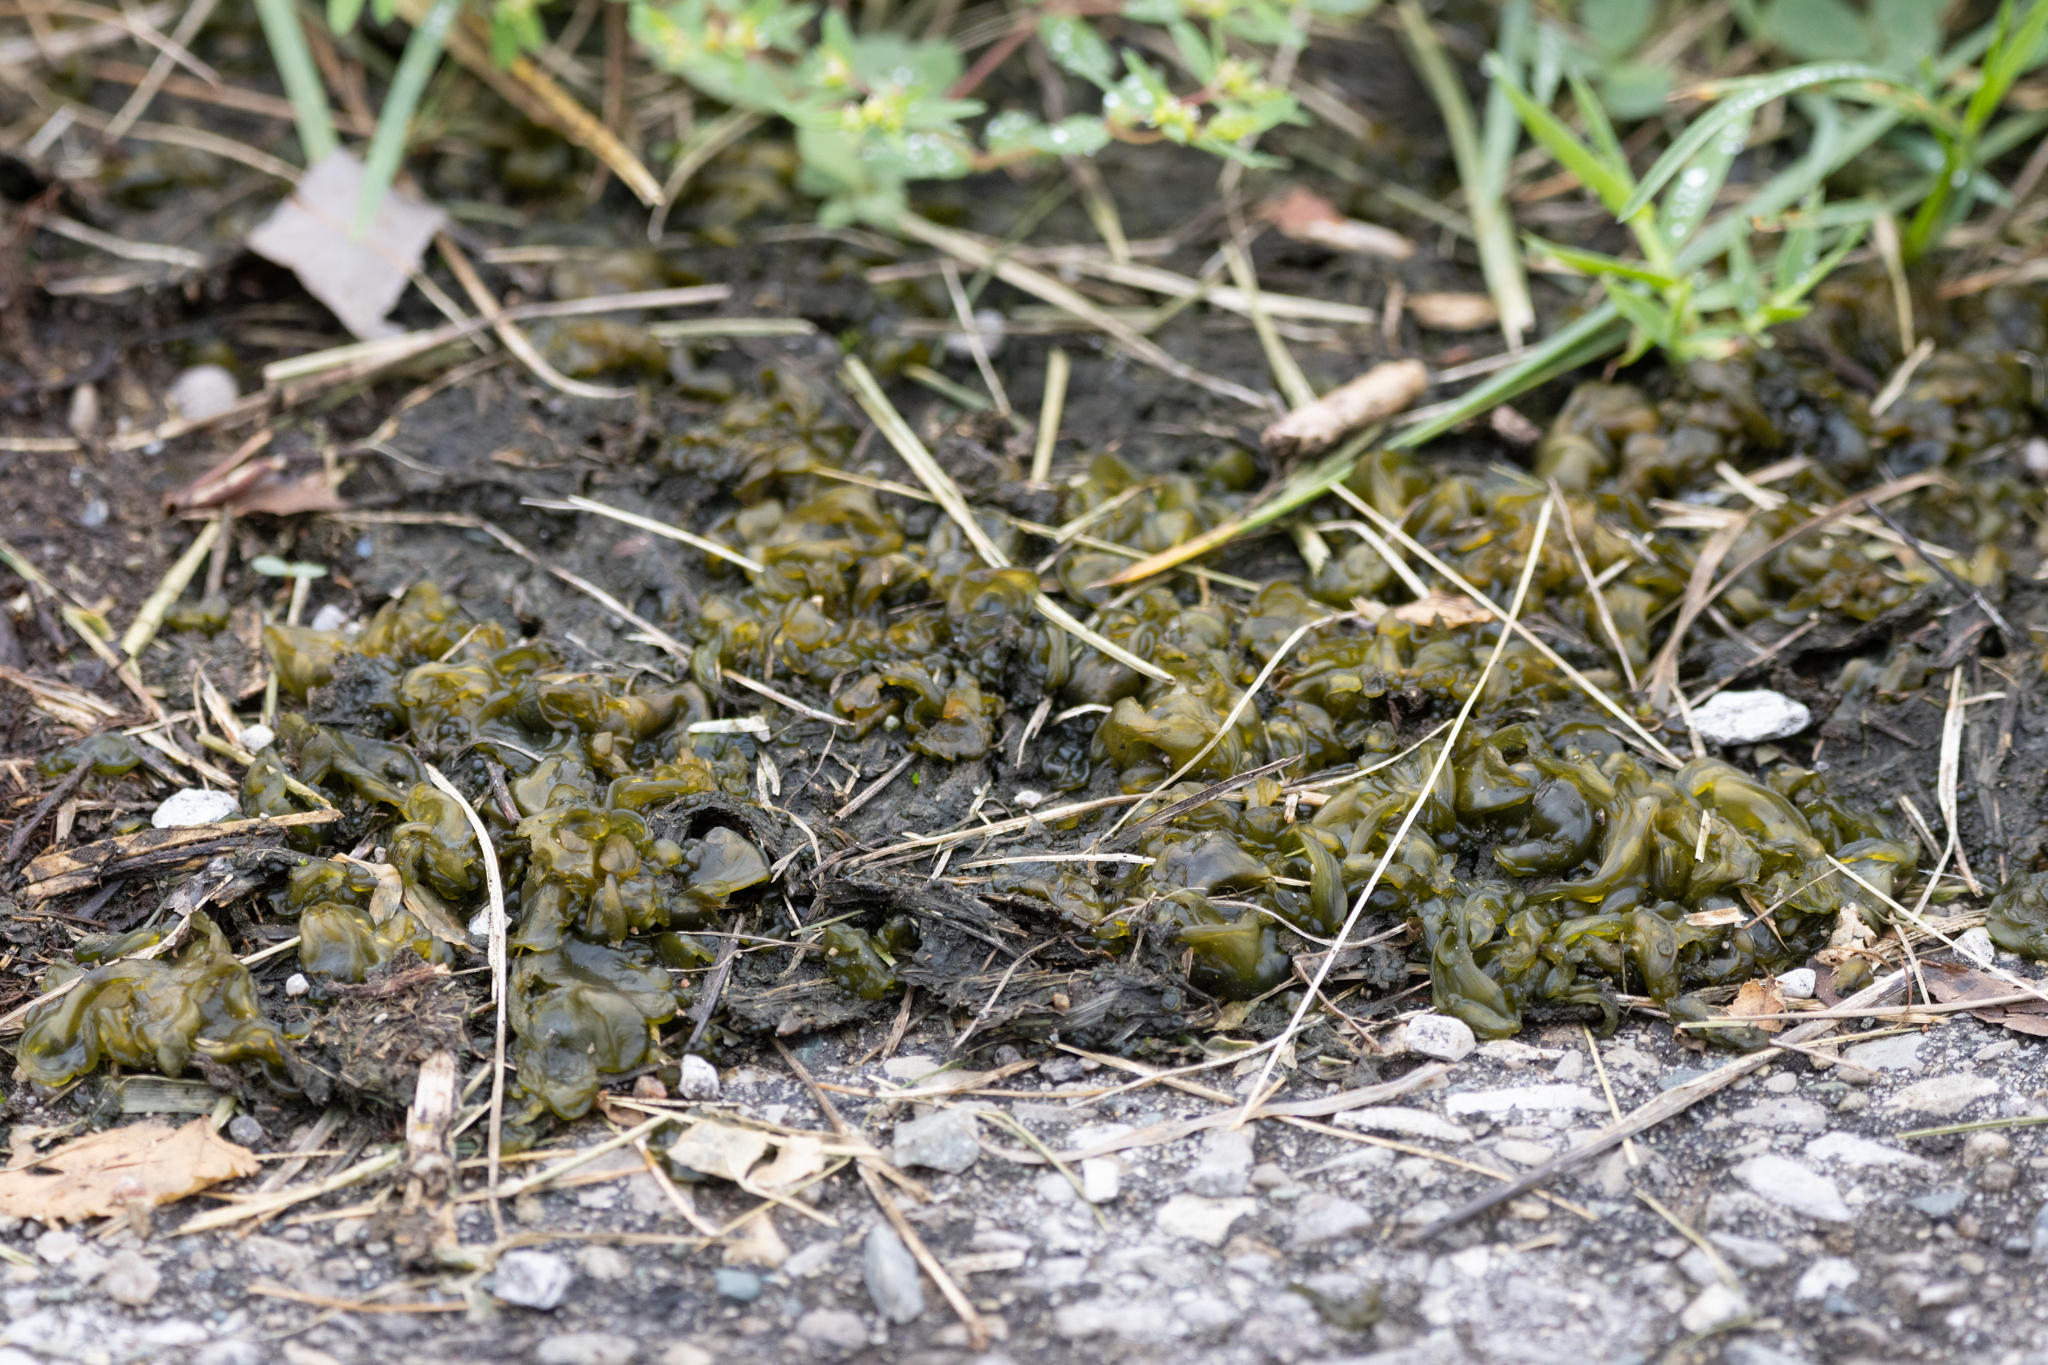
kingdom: Bacteria
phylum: Cyanobacteria
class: Cyanobacteriia
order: Cyanobacteriales
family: Nostocaceae
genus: Nostoc
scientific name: Nostoc commune
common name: Star jelly
